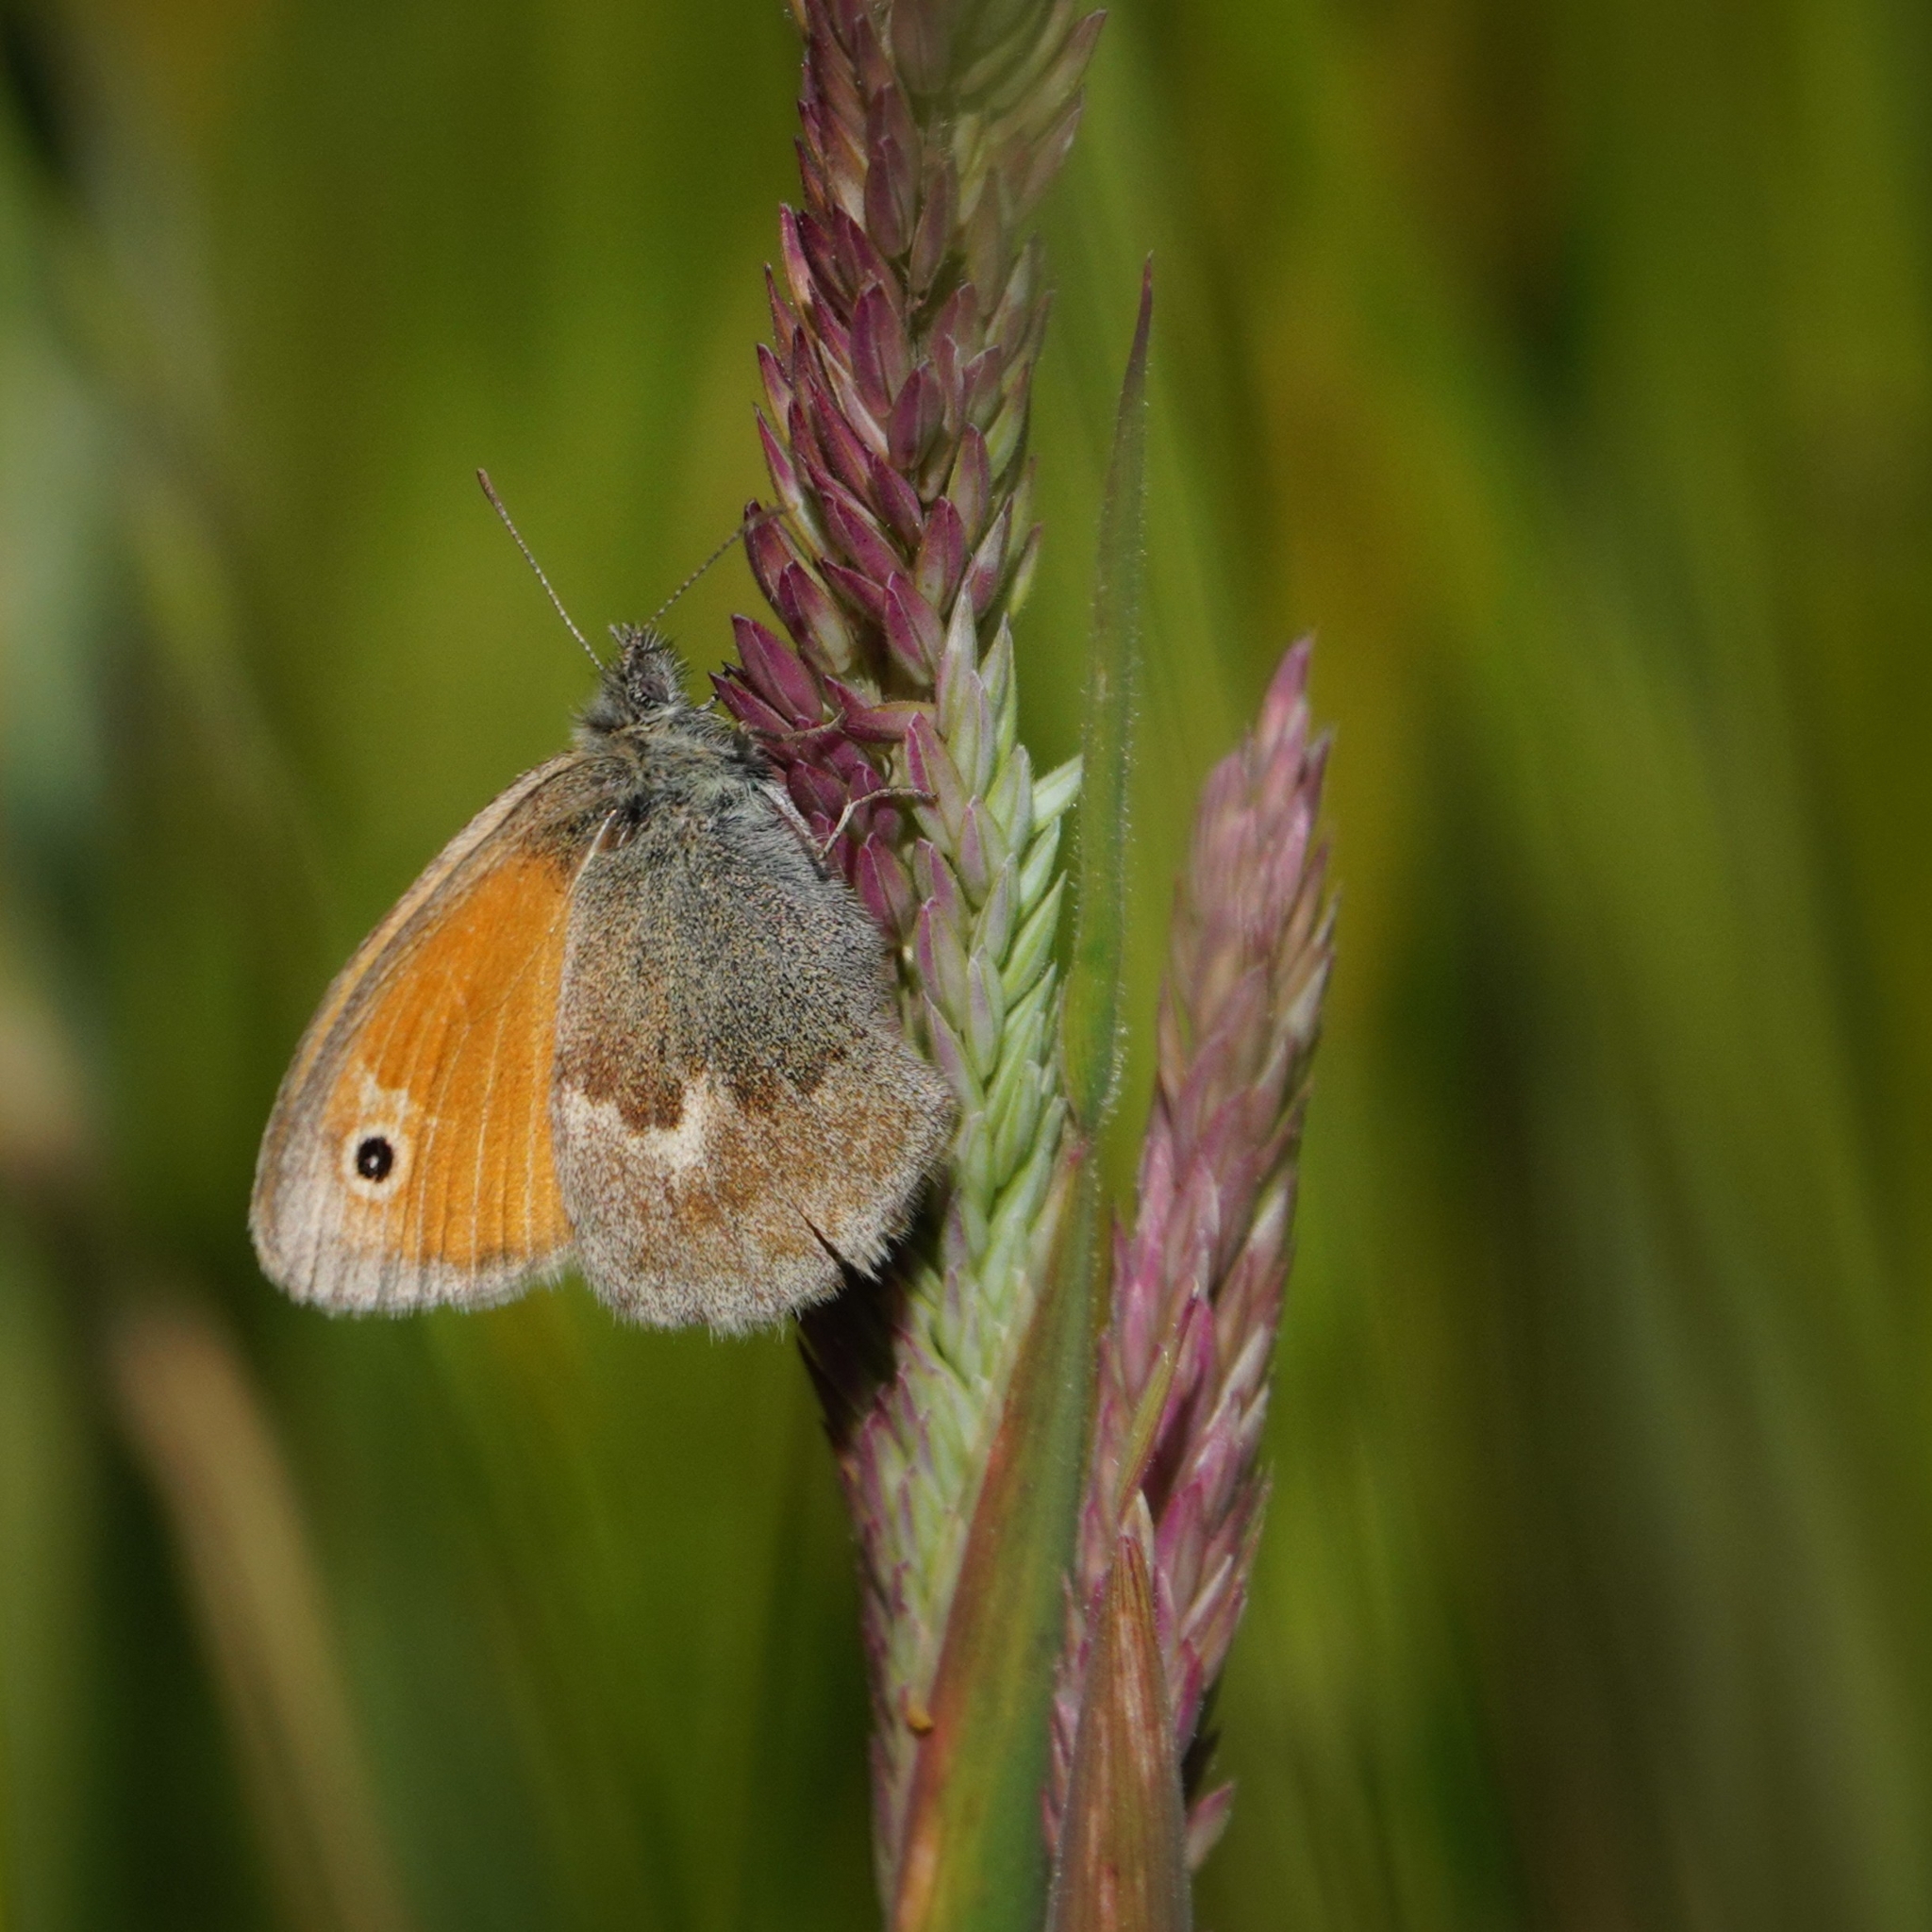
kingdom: Animalia
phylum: Arthropoda
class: Insecta
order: Lepidoptera
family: Nymphalidae
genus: Coenonympha
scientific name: Coenonympha pamphilus
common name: Small heath
